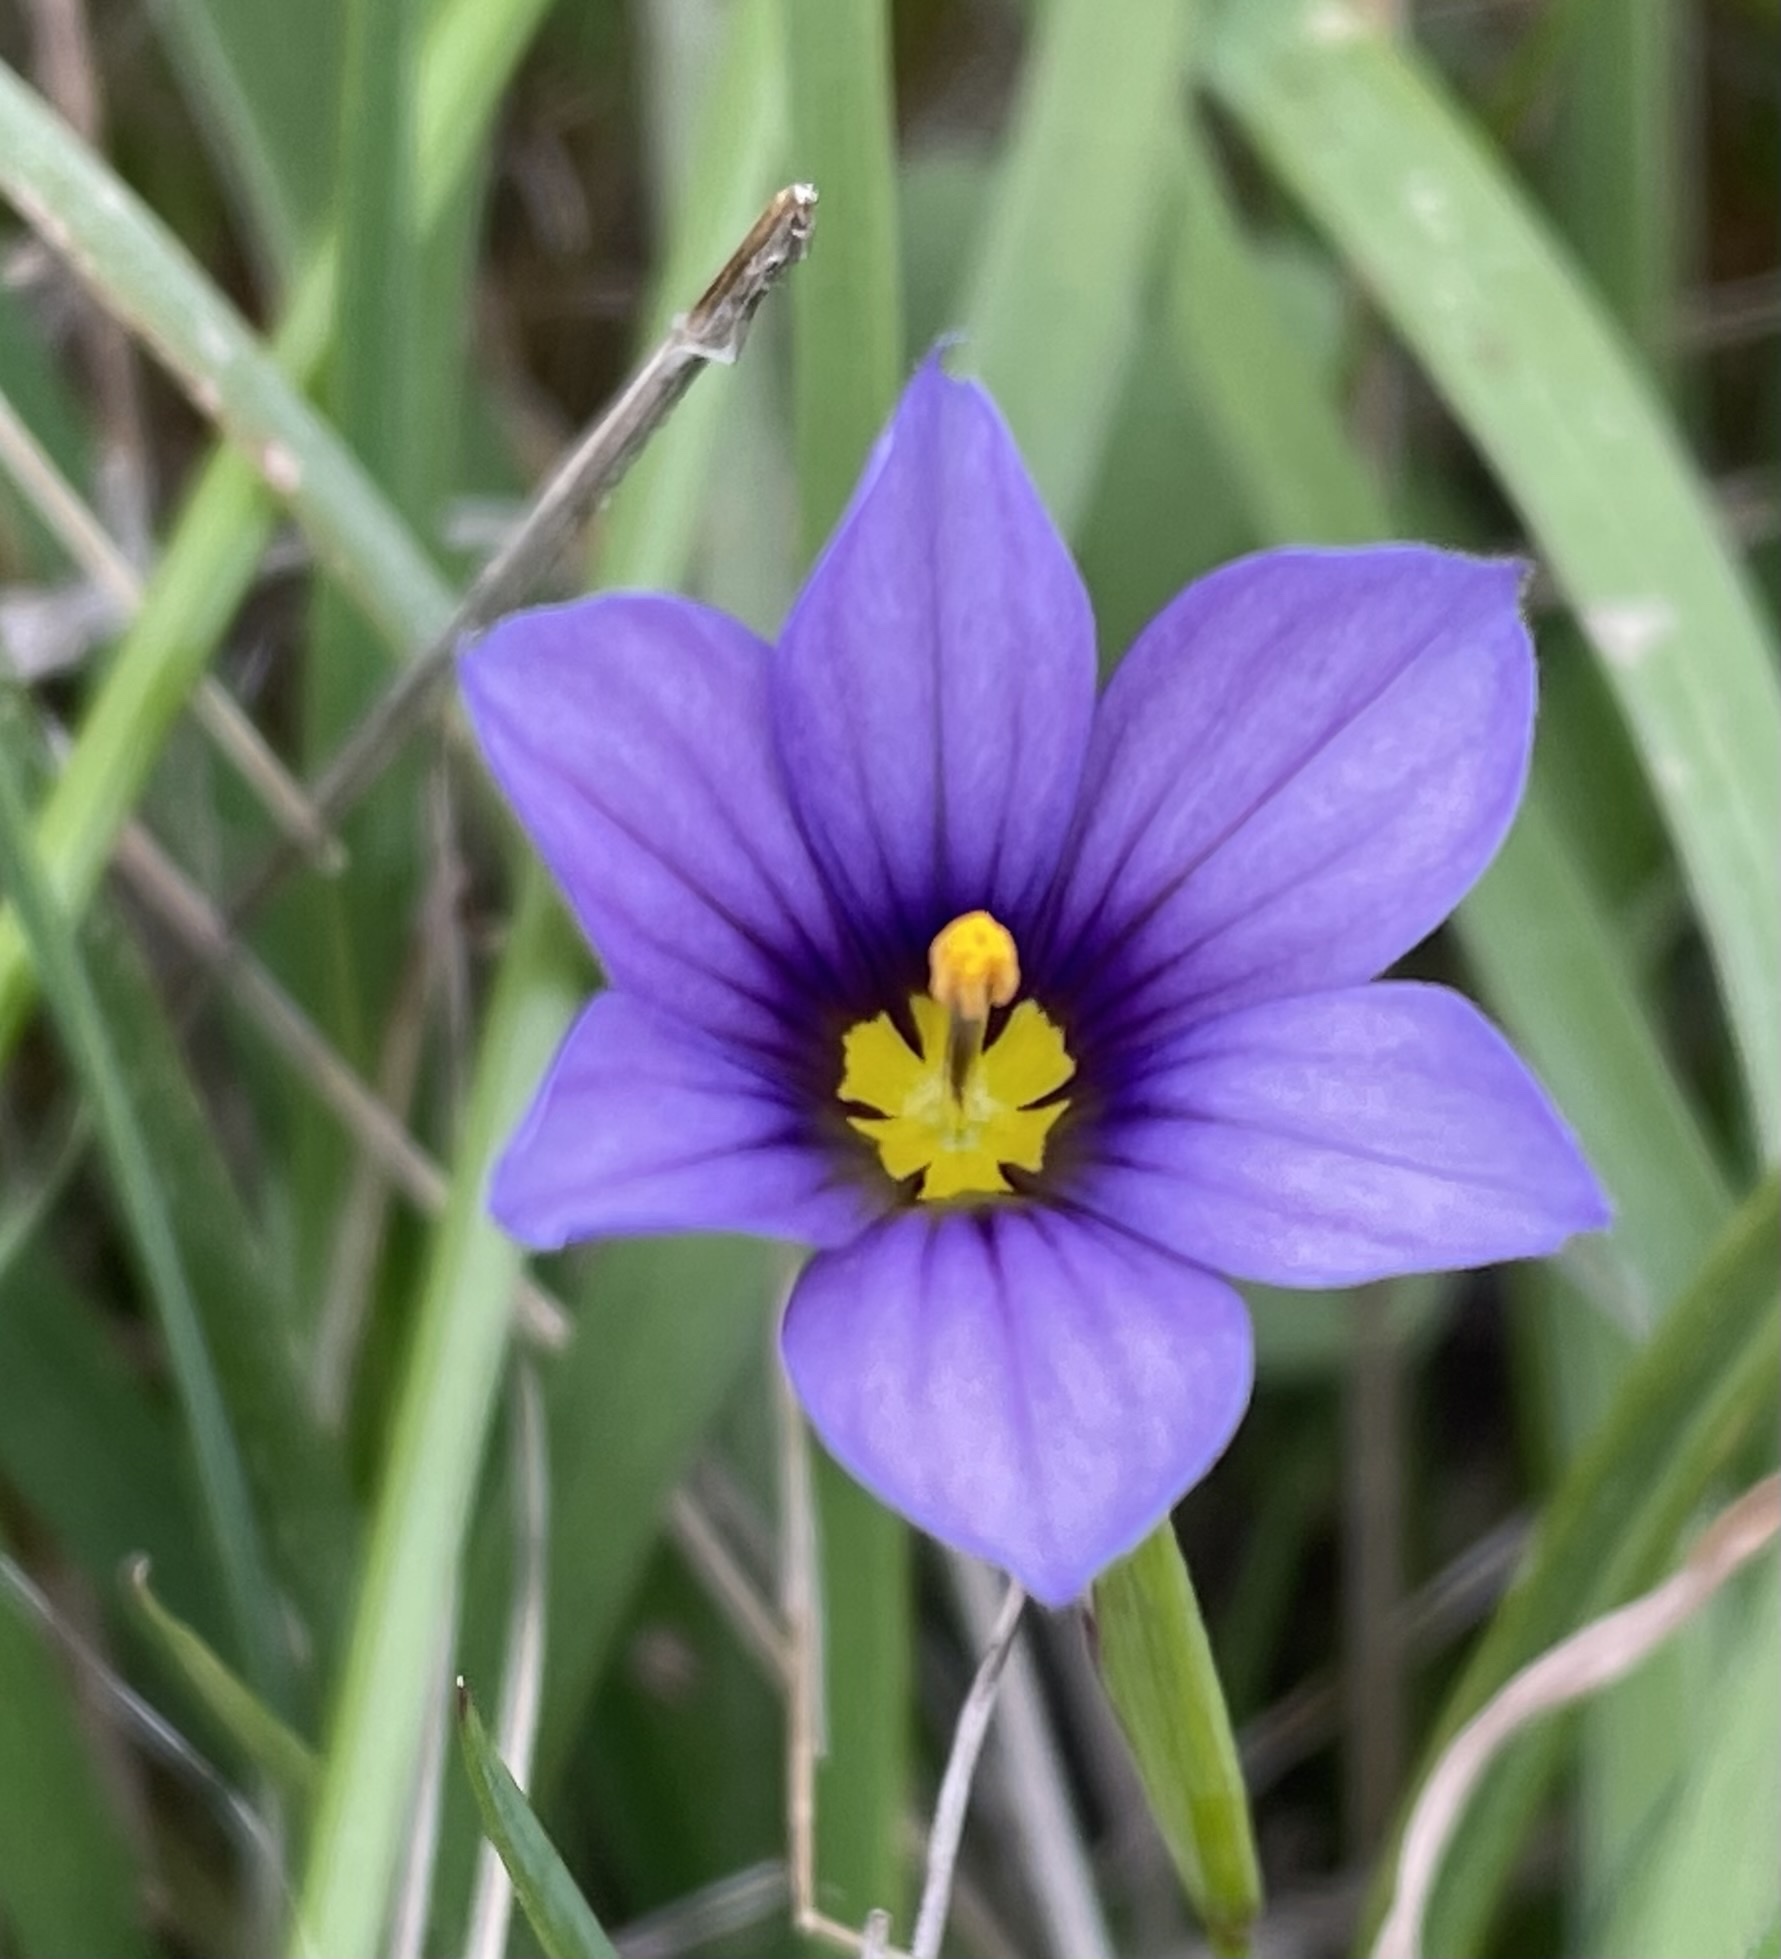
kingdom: Plantae
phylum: Tracheophyta
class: Liliopsida
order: Asparagales
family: Iridaceae
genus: Sisyrinchium
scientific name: Sisyrinchium bellum
